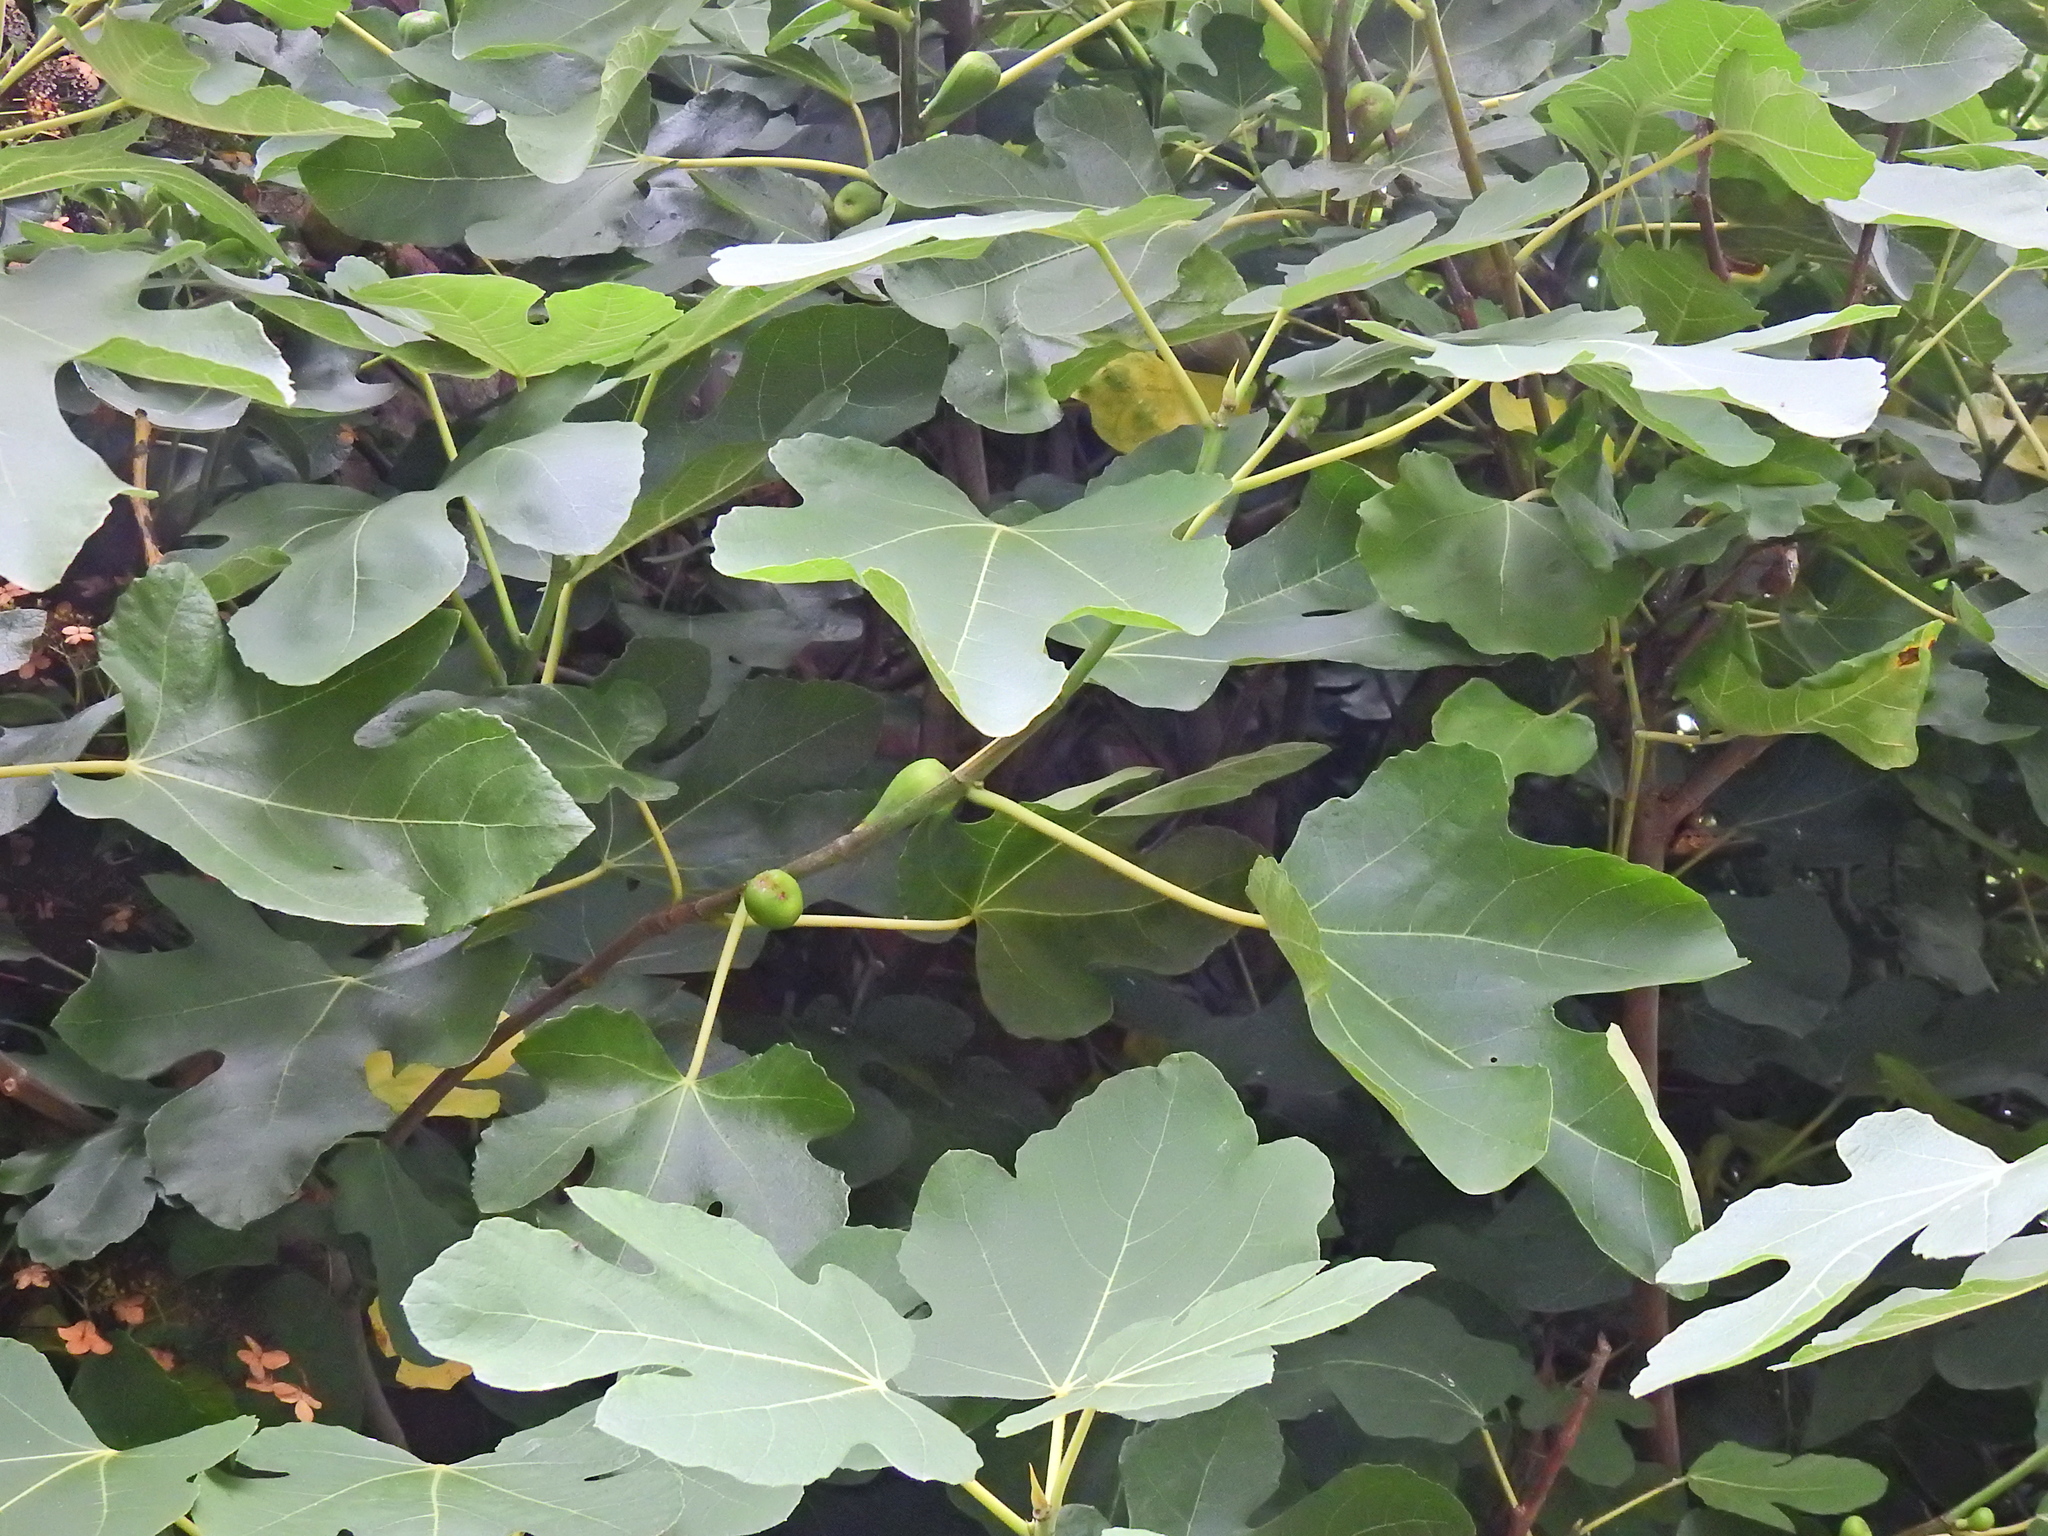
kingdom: Plantae
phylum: Tracheophyta
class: Magnoliopsida
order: Rosales
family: Moraceae
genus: Ficus
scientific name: Ficus carica
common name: Fig
